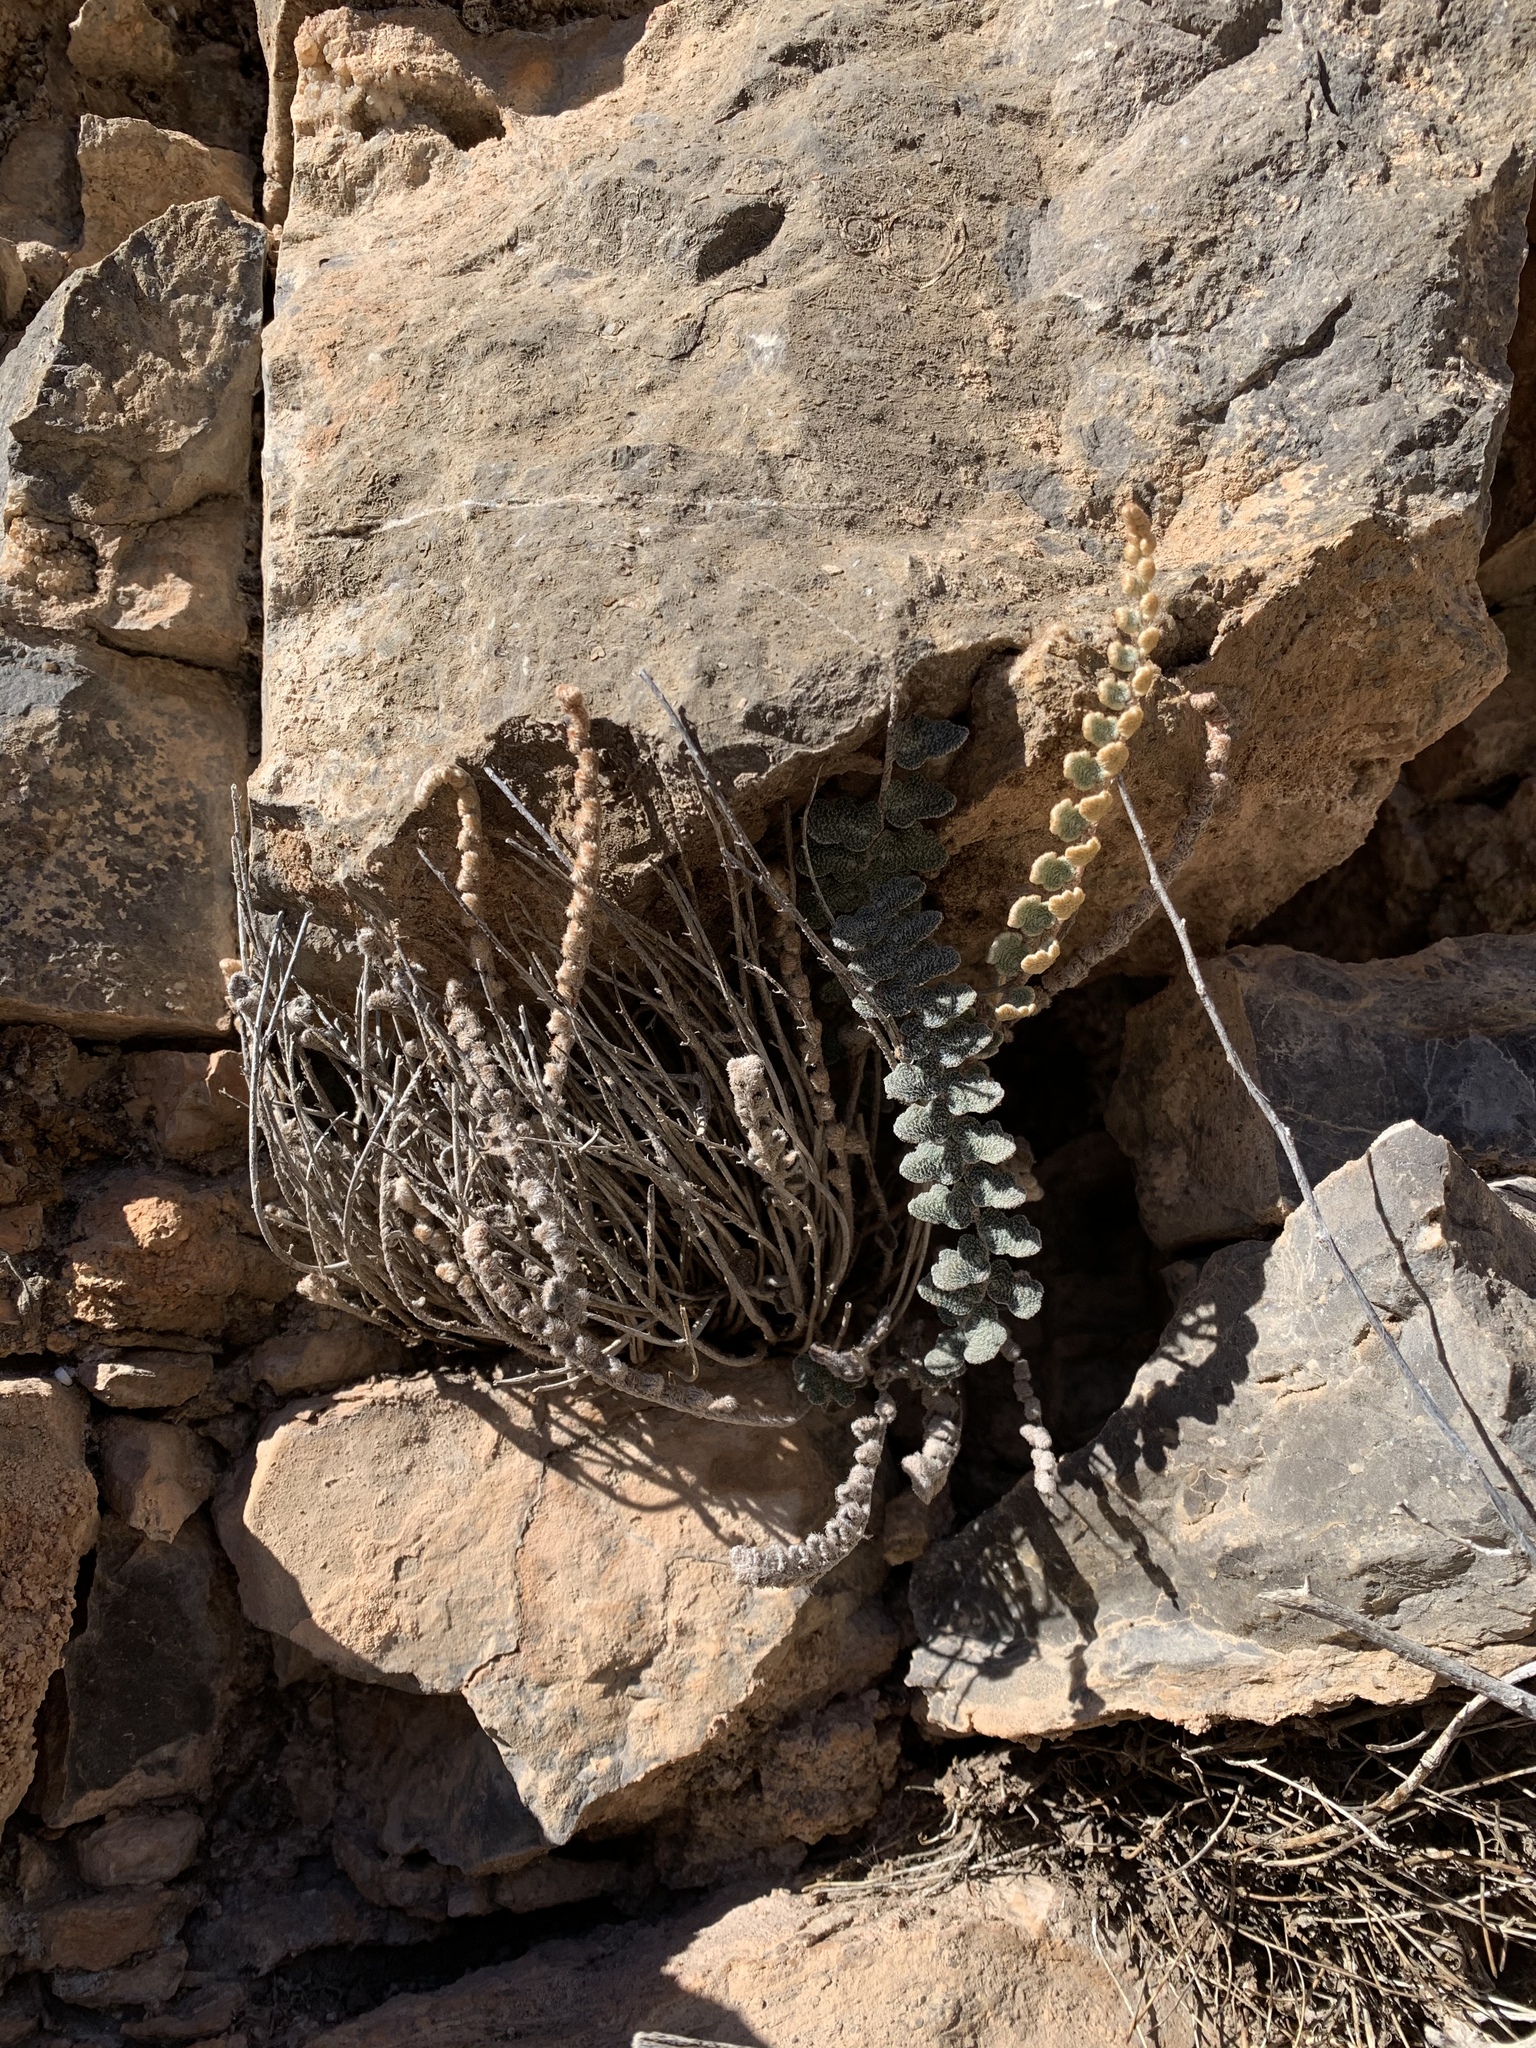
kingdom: Plantae
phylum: Tracheophyta
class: Polypodiopsida
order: Polypodiales
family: Pteridaceae
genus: Astrolepis
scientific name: Astrolepis integerrima
